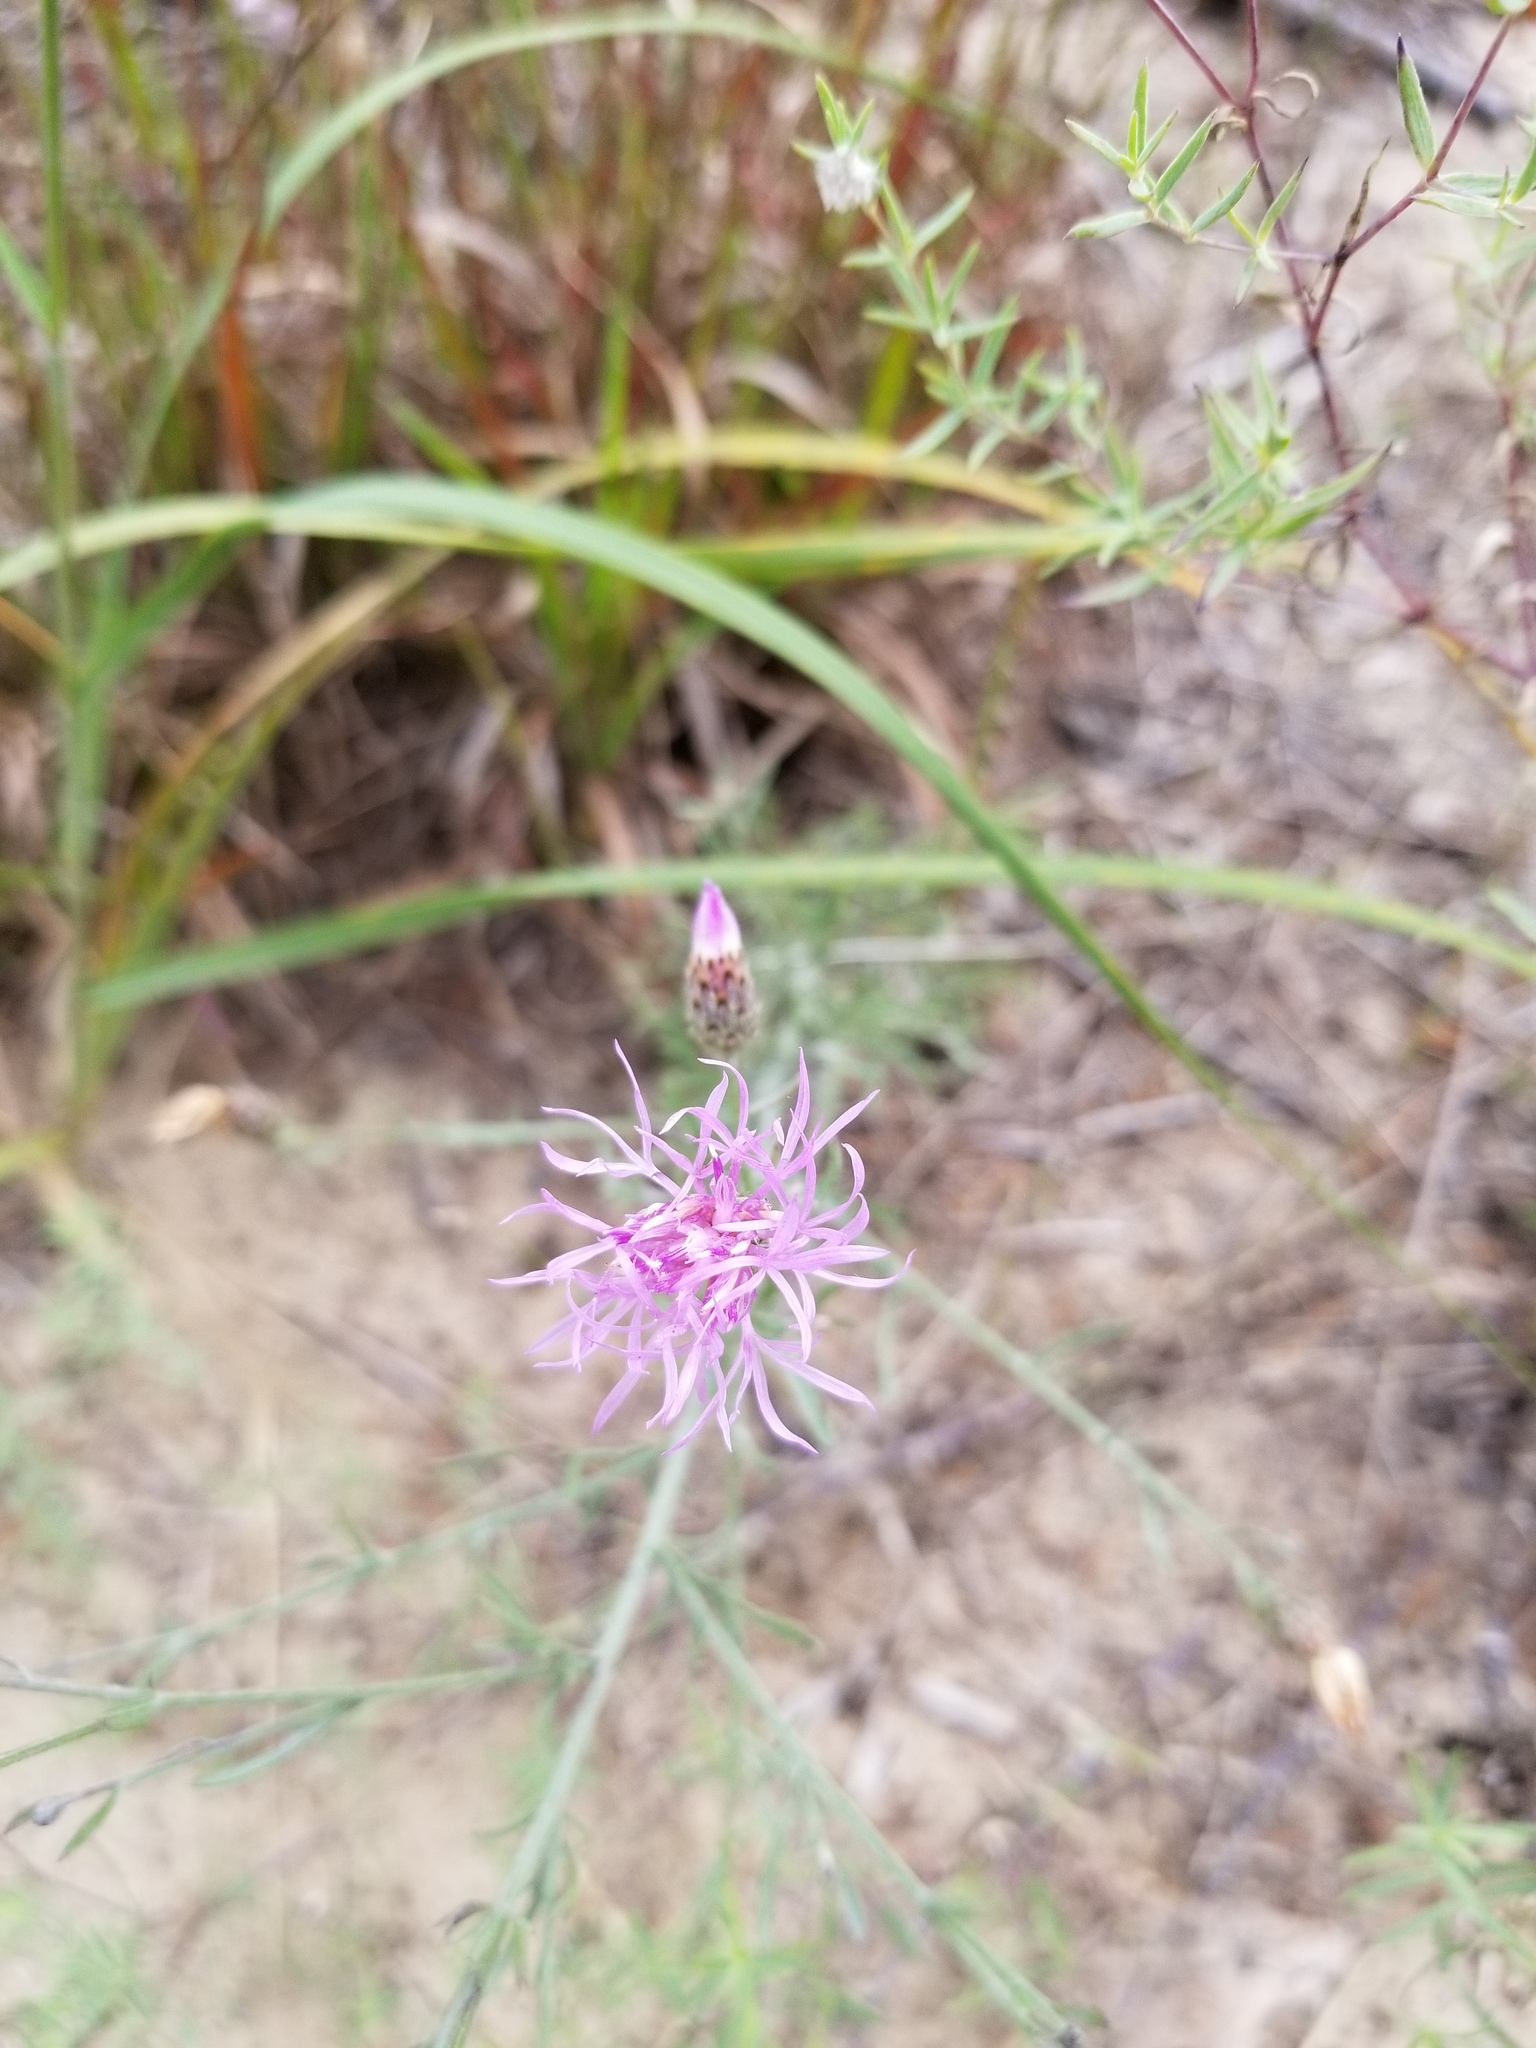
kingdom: Plantae
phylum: Tracheophyta
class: Magnoliopsida
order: Asterales
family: Asteraceae
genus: Centaurea
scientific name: Centaurea stoebe
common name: Spotted knapweed
